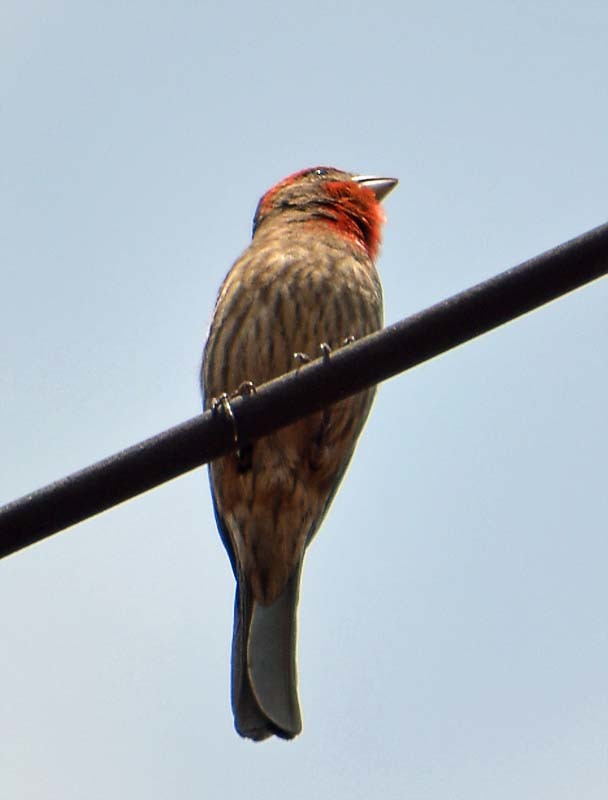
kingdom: Animalia
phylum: Chordata
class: Aves
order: Passeriformes
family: Fringillidae
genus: Haemorhous
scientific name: Haemorhous mexicanus
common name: House finch
